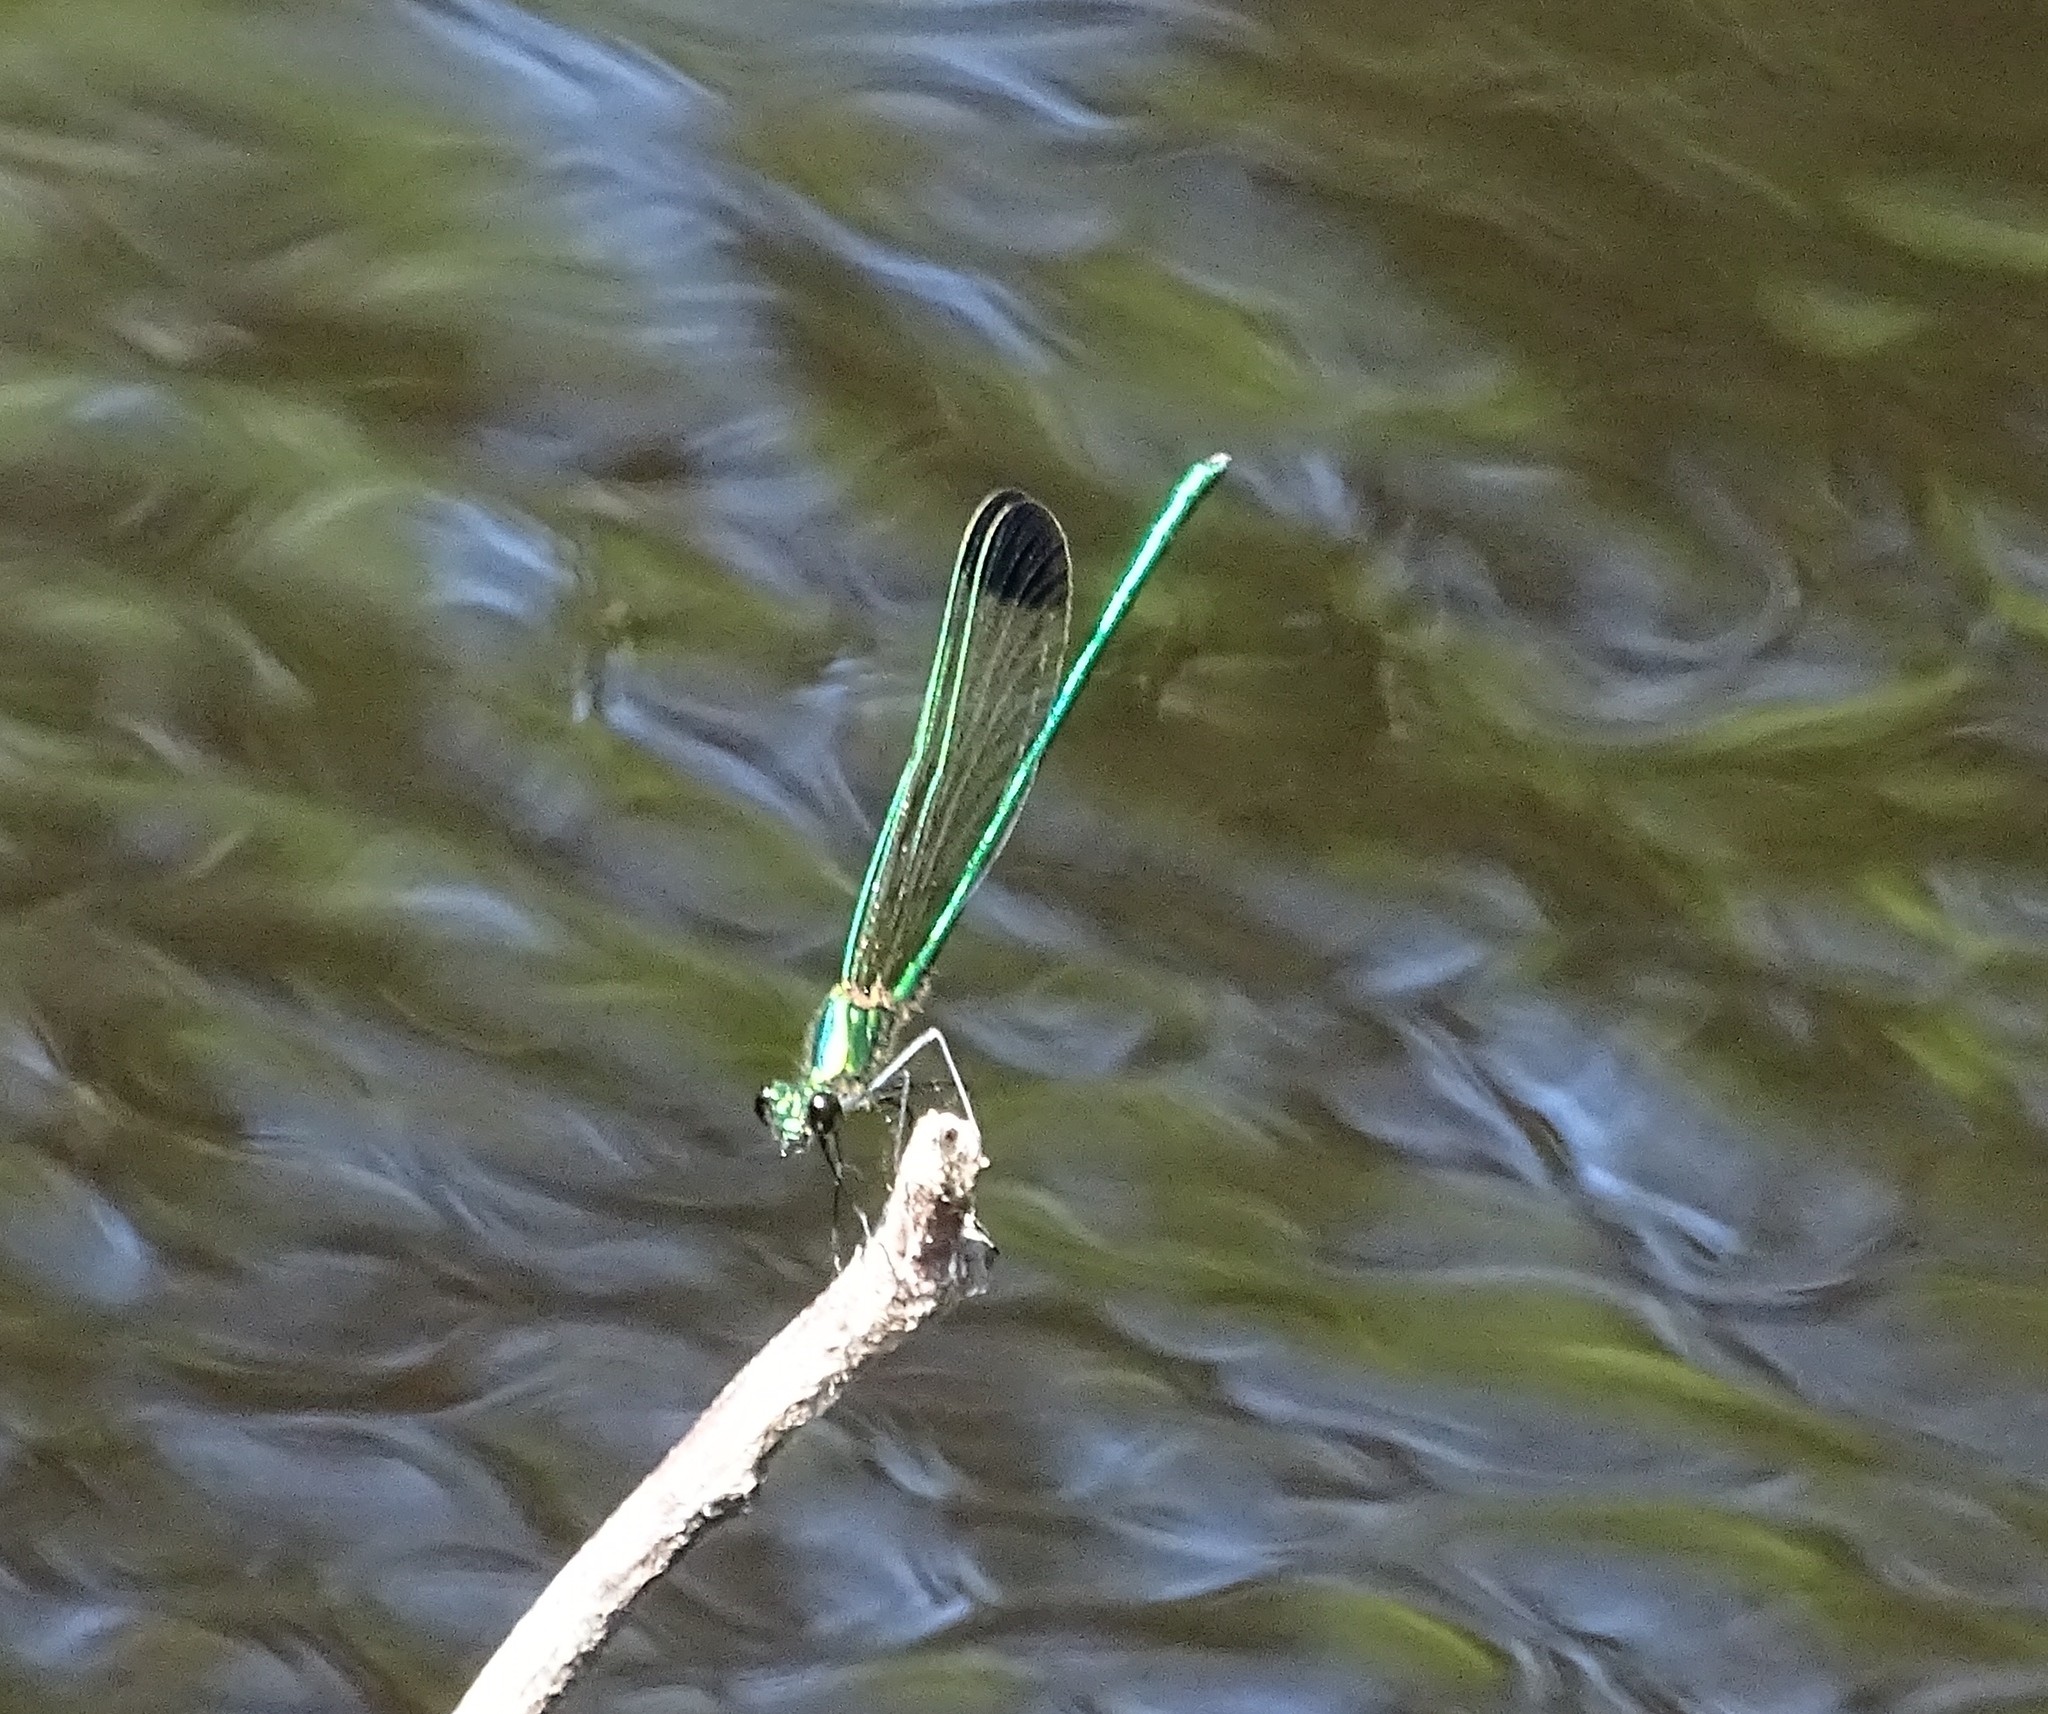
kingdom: Animalia
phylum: Arthropoda
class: Insecta
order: Odonata
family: Calopterygidae
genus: Calopteryx
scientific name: Calopteryx dimidiata
